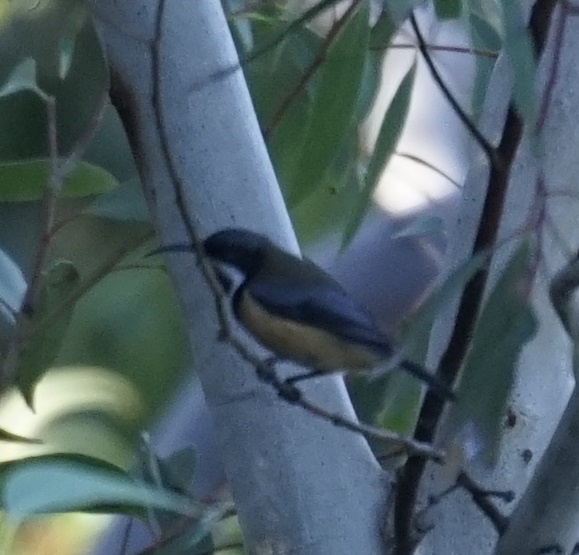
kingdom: Animalia
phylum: Chordata
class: Aves
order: Passeriformes
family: Meliphagidae
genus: Acanthorhynchus
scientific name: Acanthorhynchus tenuirostris
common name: Eastern spinebill
